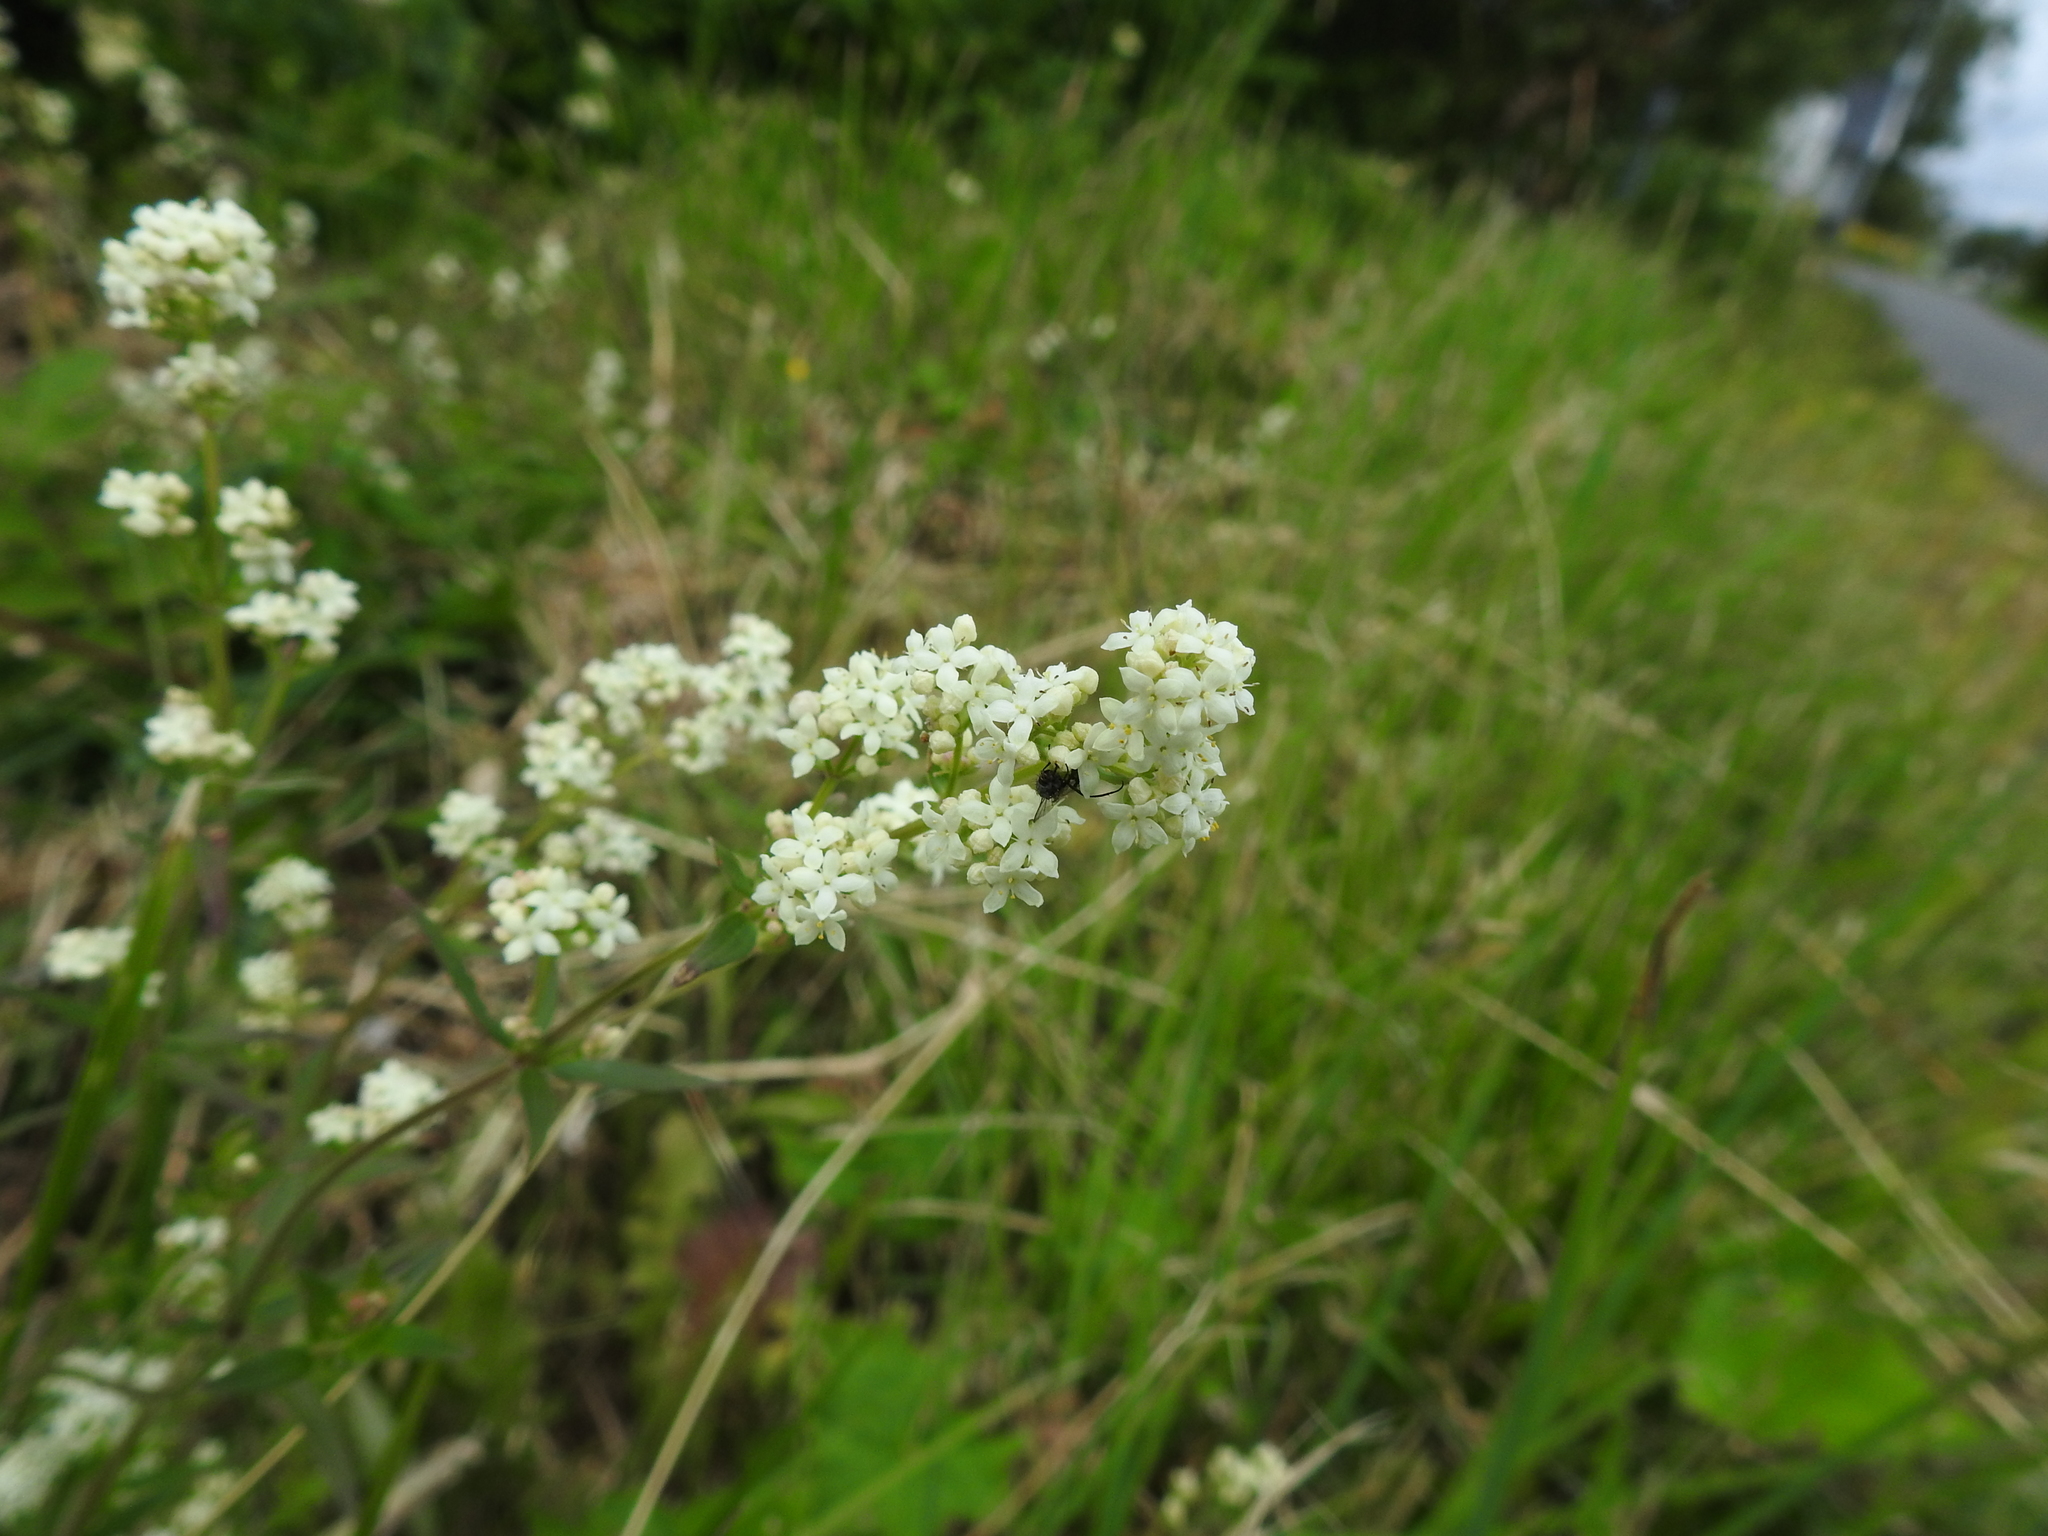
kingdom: Plantae
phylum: Tracheophyta
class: Magnoliopsida
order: Gentianales
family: Rubiaceae
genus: Galium
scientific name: Galium boreale
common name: Northern bedstraw
